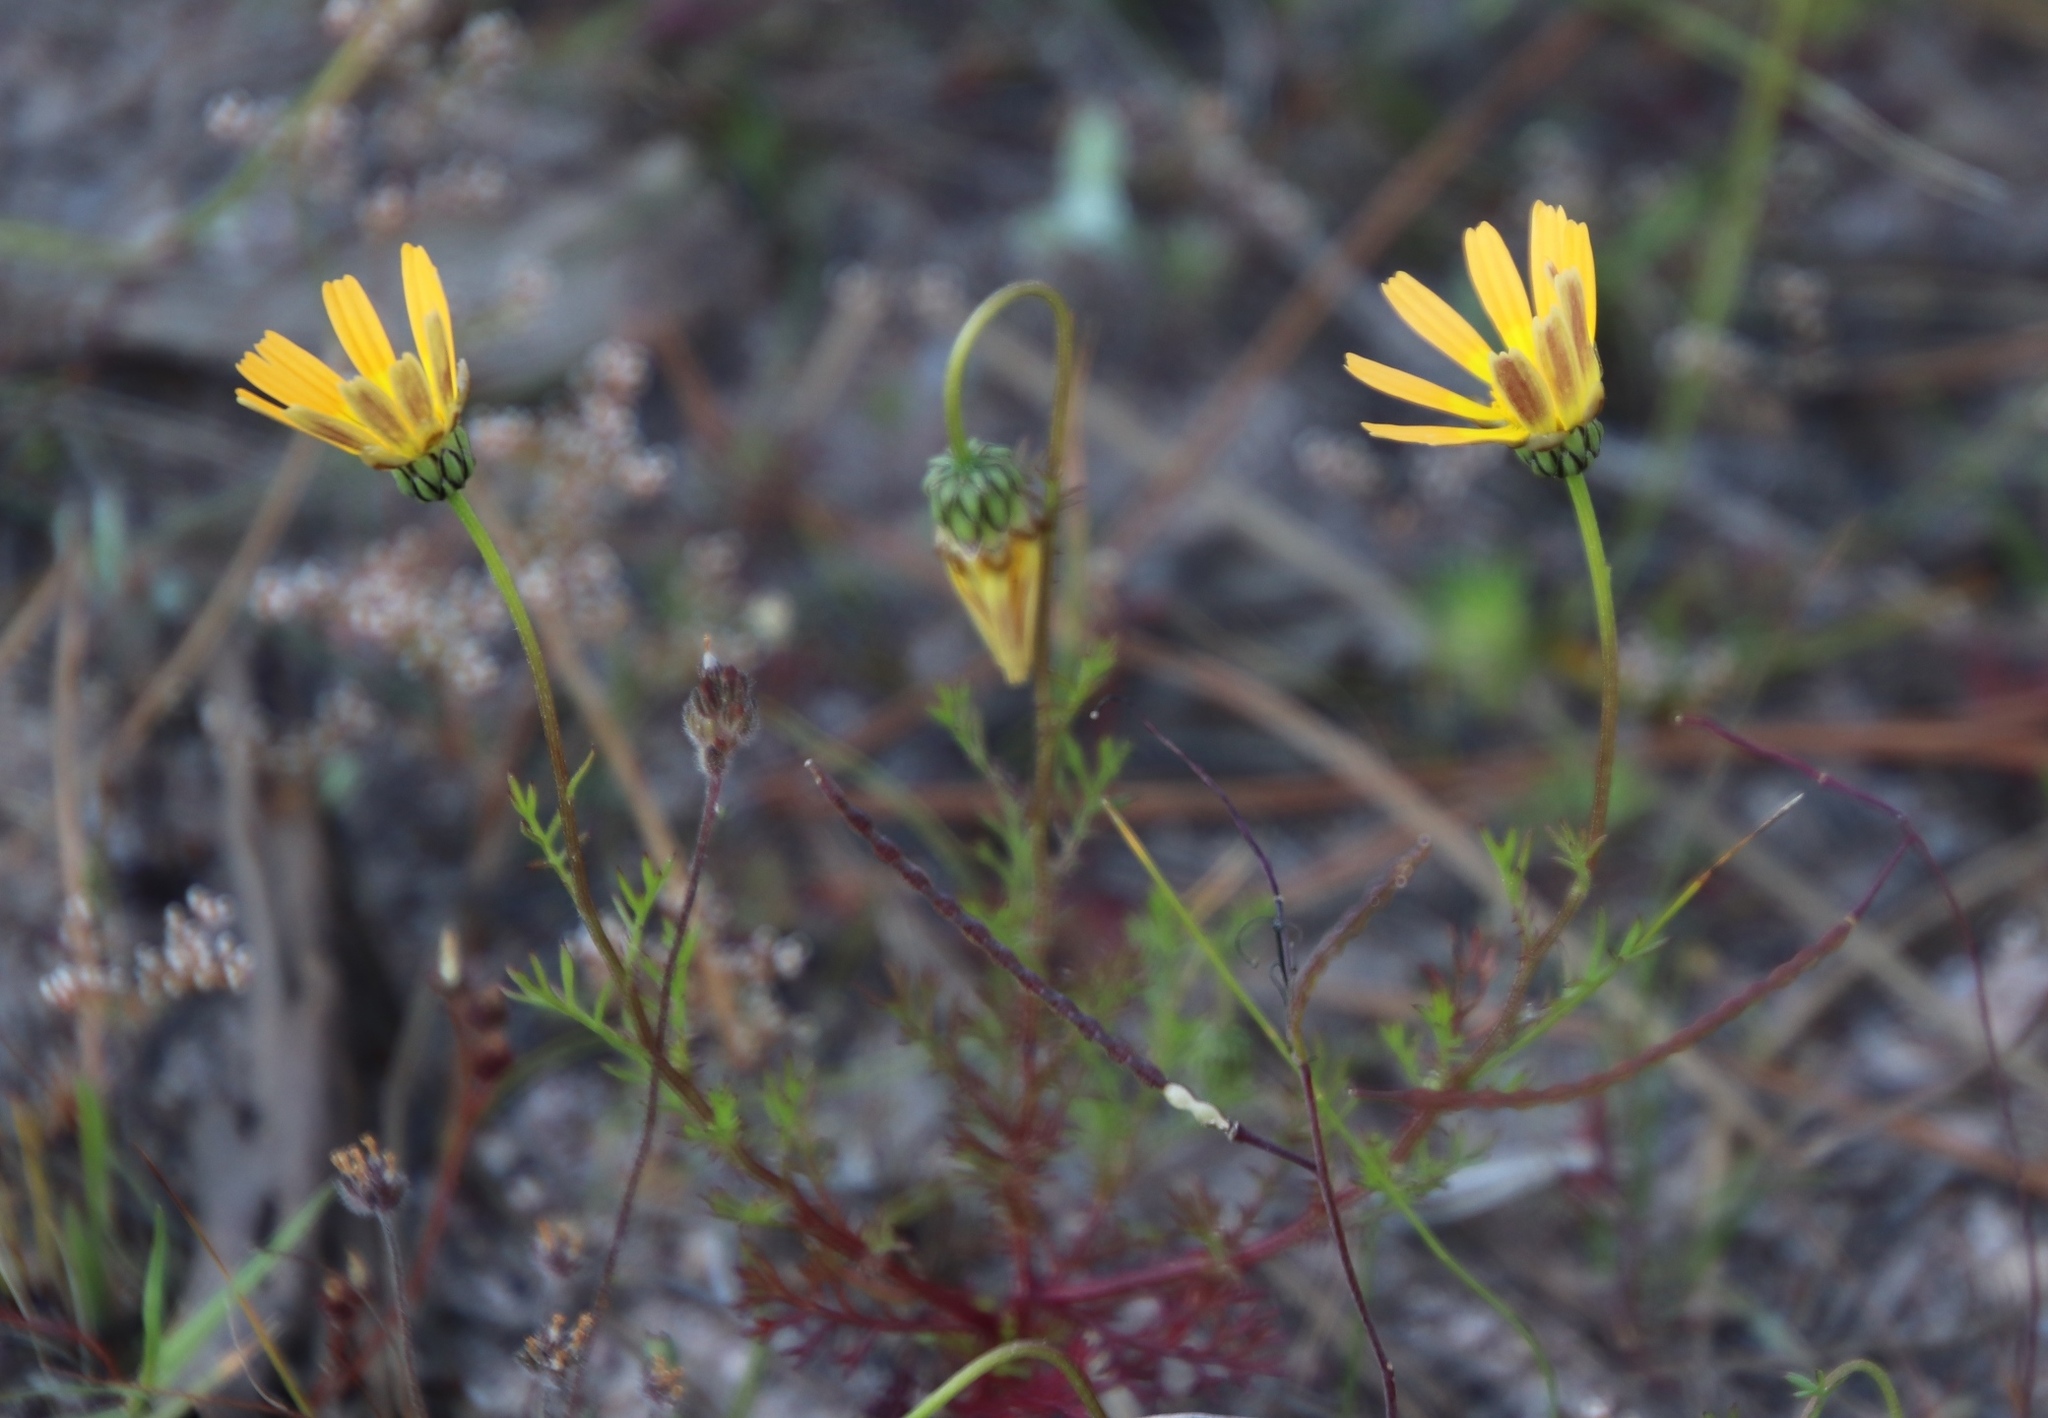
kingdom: Plantae
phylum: Tracheophyta
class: Magnoliopsida
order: Asterales
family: Asteraceae
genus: Ursinia
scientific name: Ursinia anthemoides
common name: Ursinia
